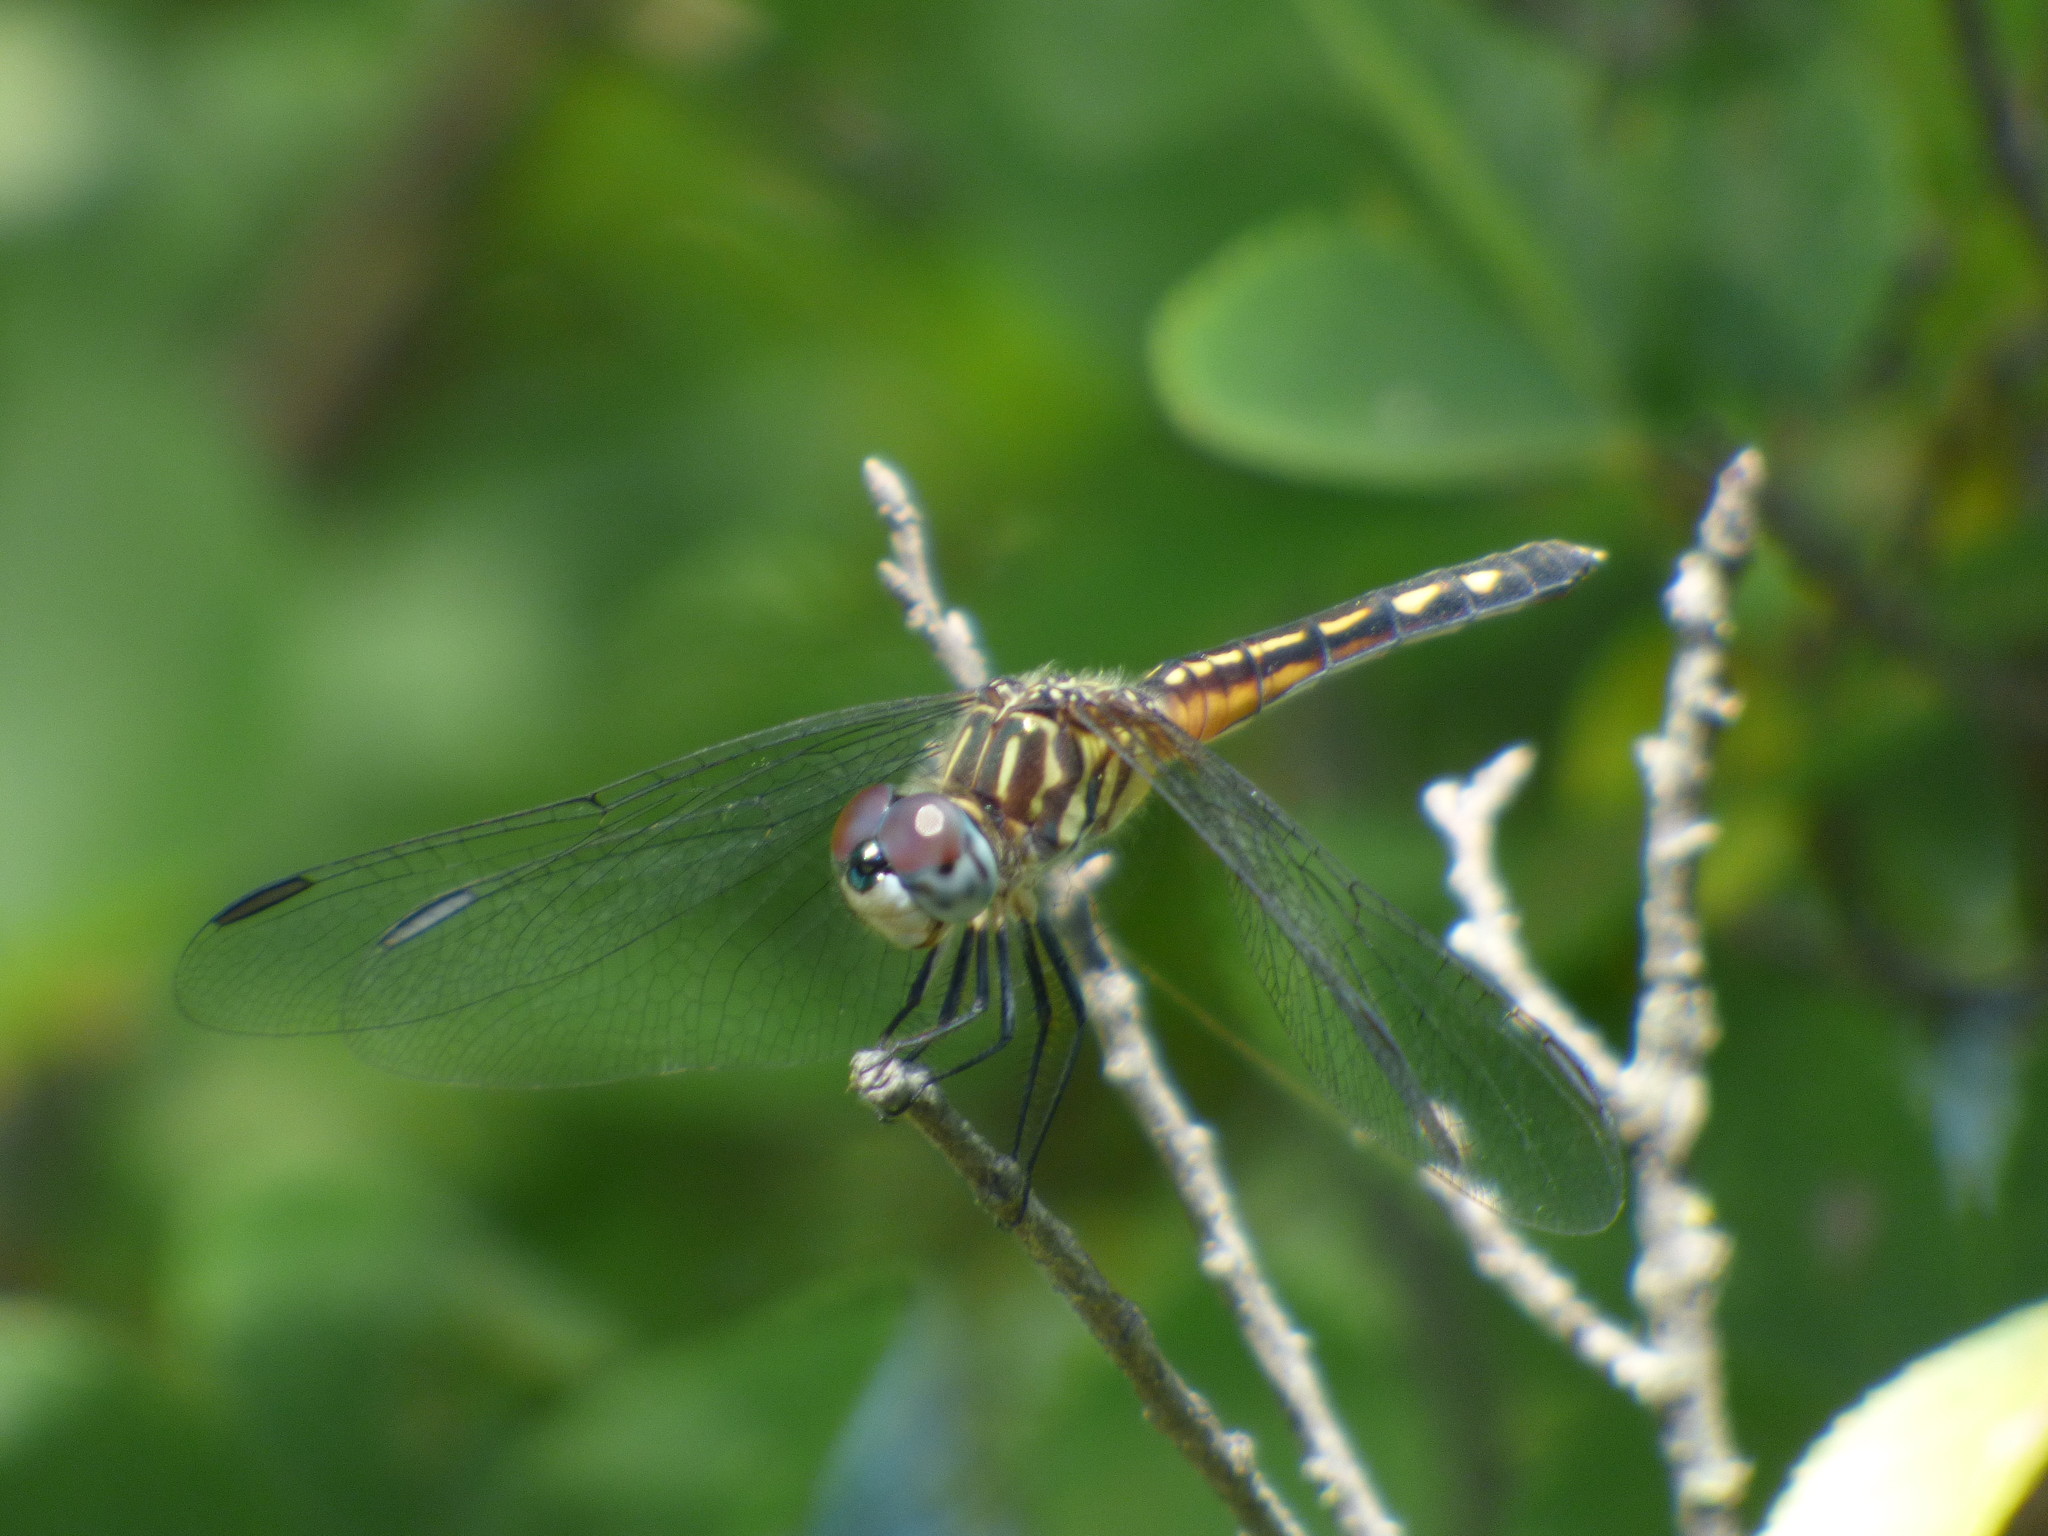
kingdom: Animalia
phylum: Arthropoda
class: Insecta
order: Odonata
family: Libellulidae
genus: Pachydiplax
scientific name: Pachydiplax longipennis
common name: Blue dasher
